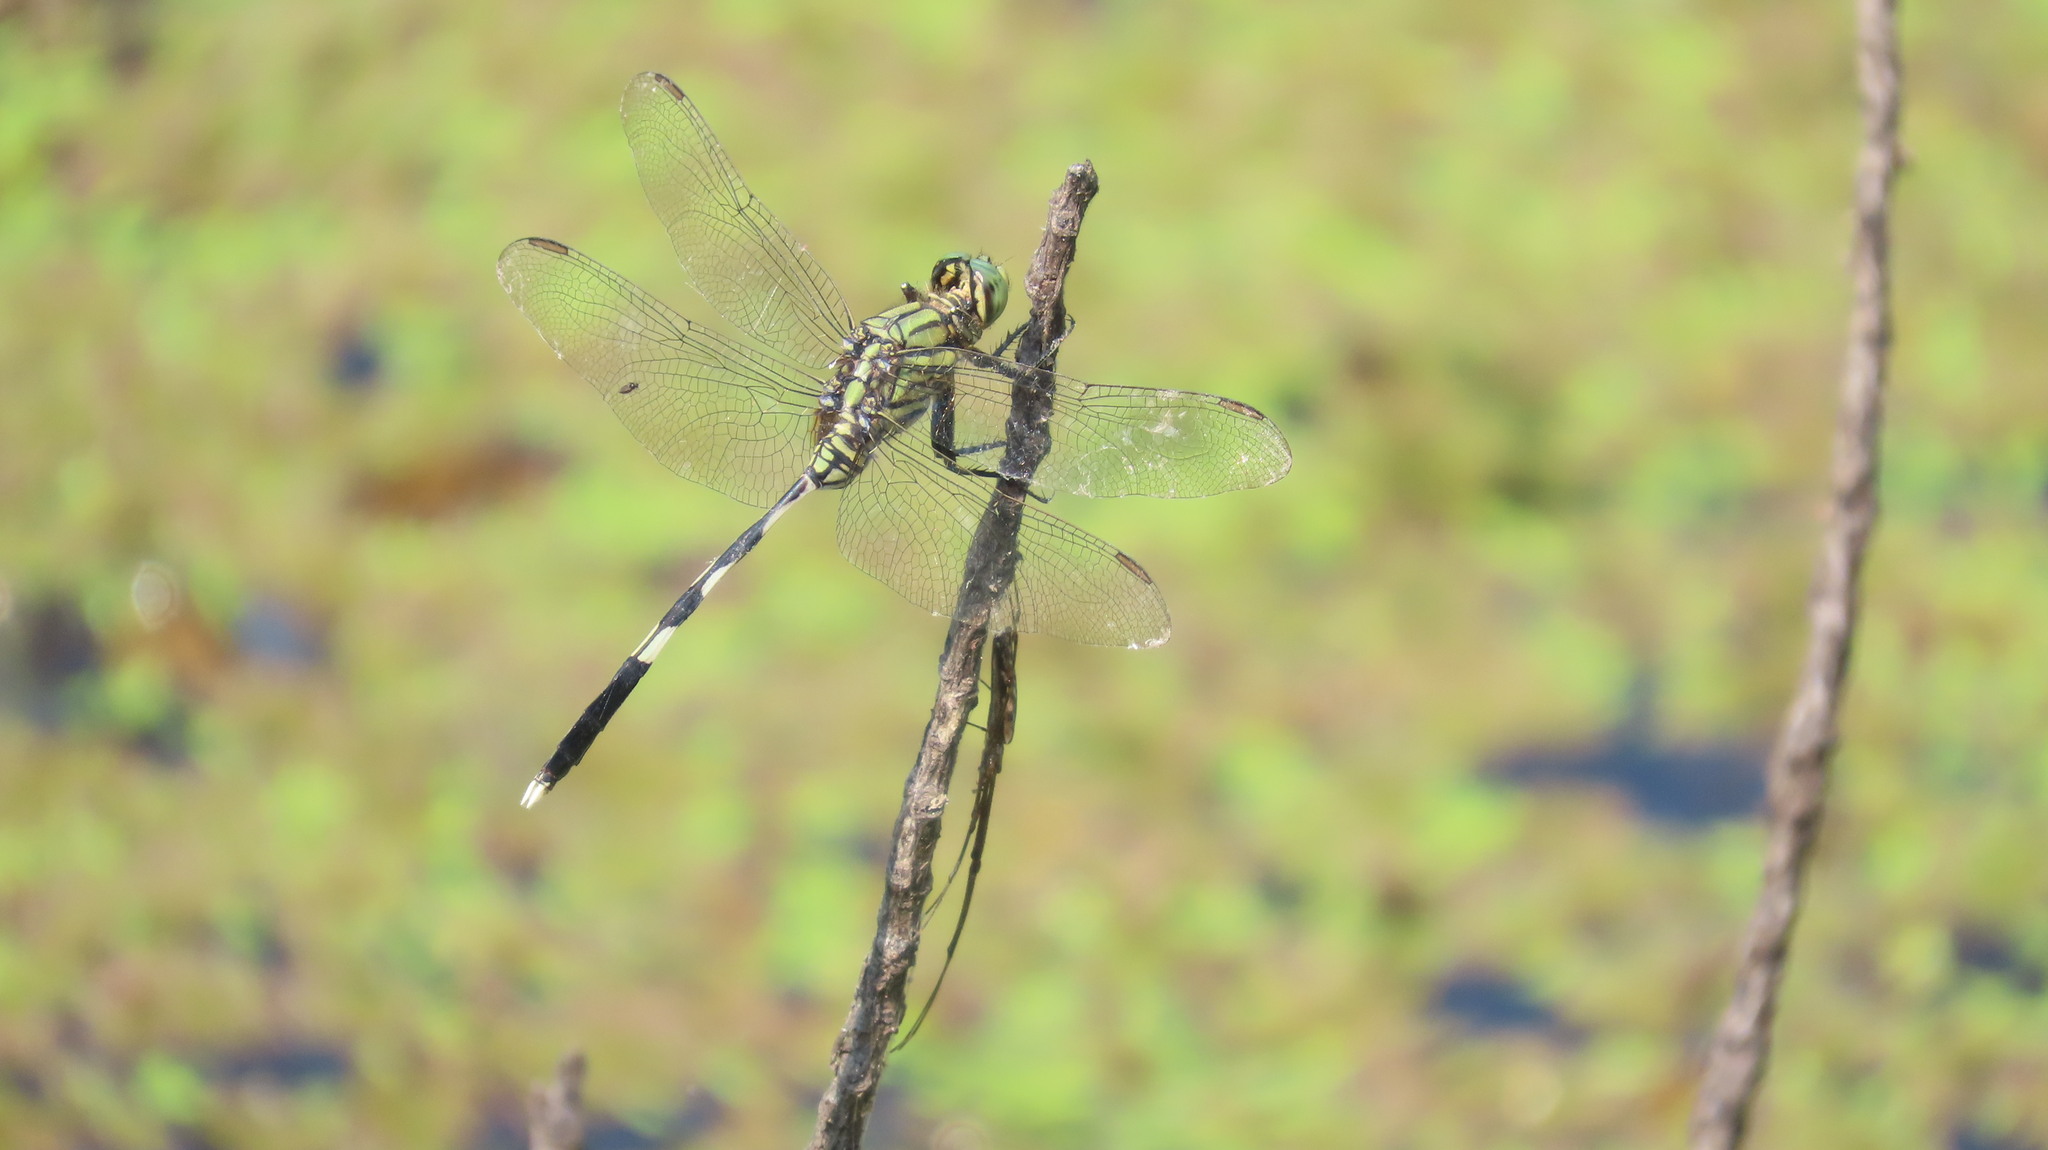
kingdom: Animalia
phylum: Arthropoda
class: Insecta
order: Odonata
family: Libellulidae
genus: Orthetrum
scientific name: Orthetrum sabina
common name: Slender skimmer
